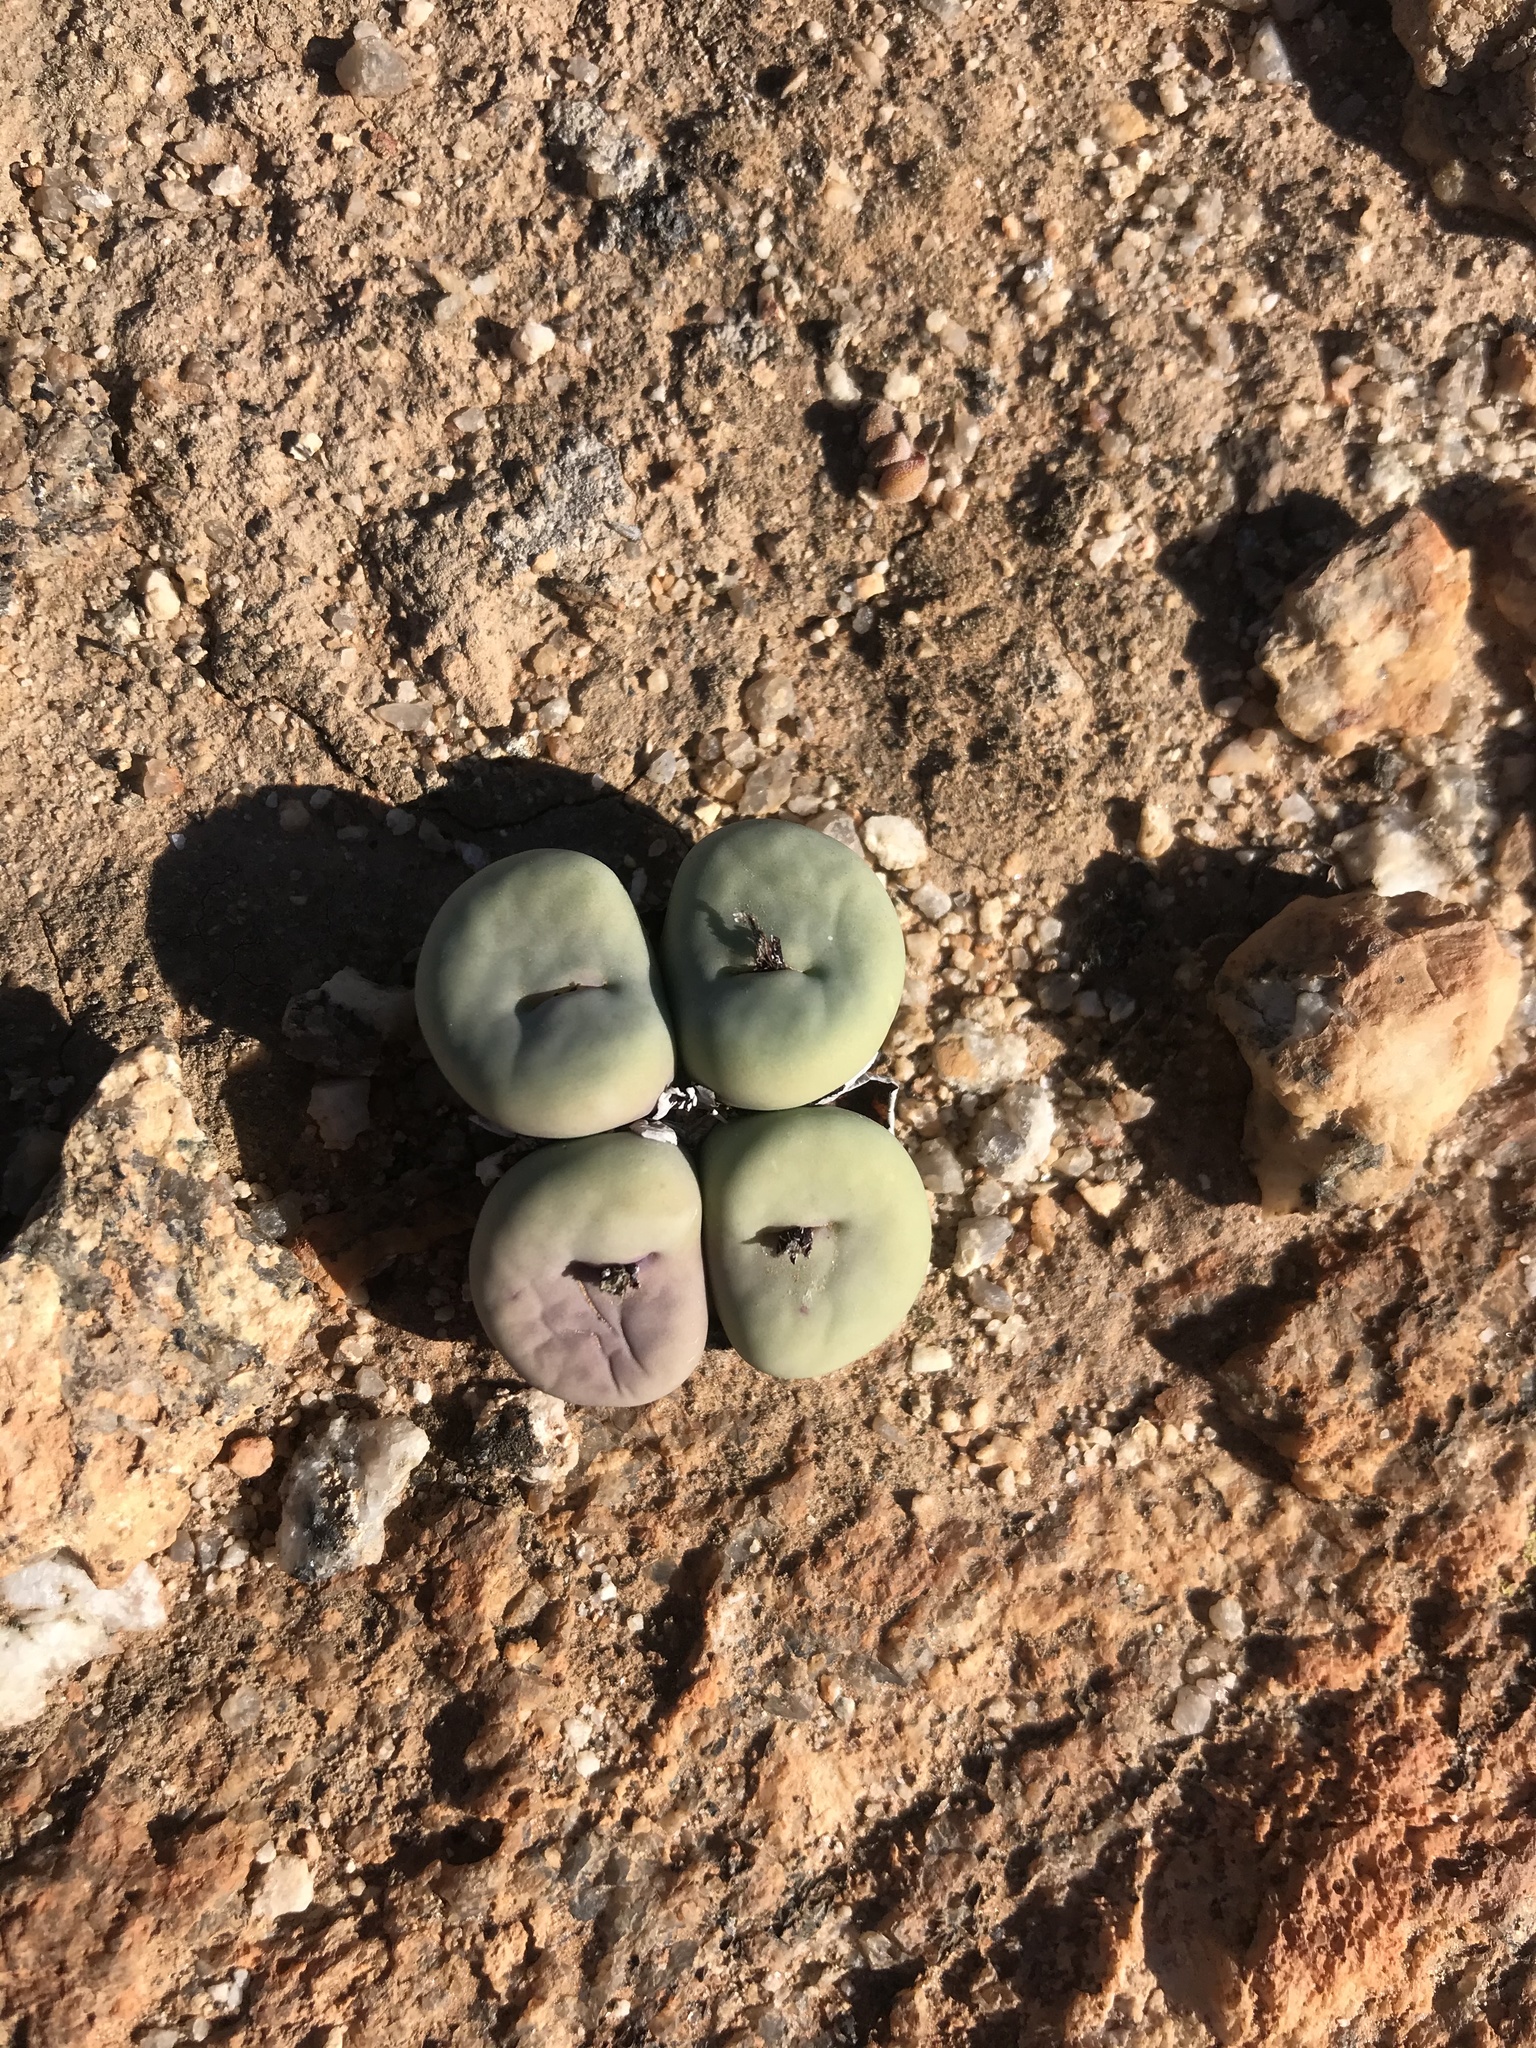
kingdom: Plantae
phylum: Tracheophyta
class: Magnoliopsida
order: Caryophyllales
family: Aizoaceae
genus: Conophytum
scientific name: Conophytum wettsteinii
